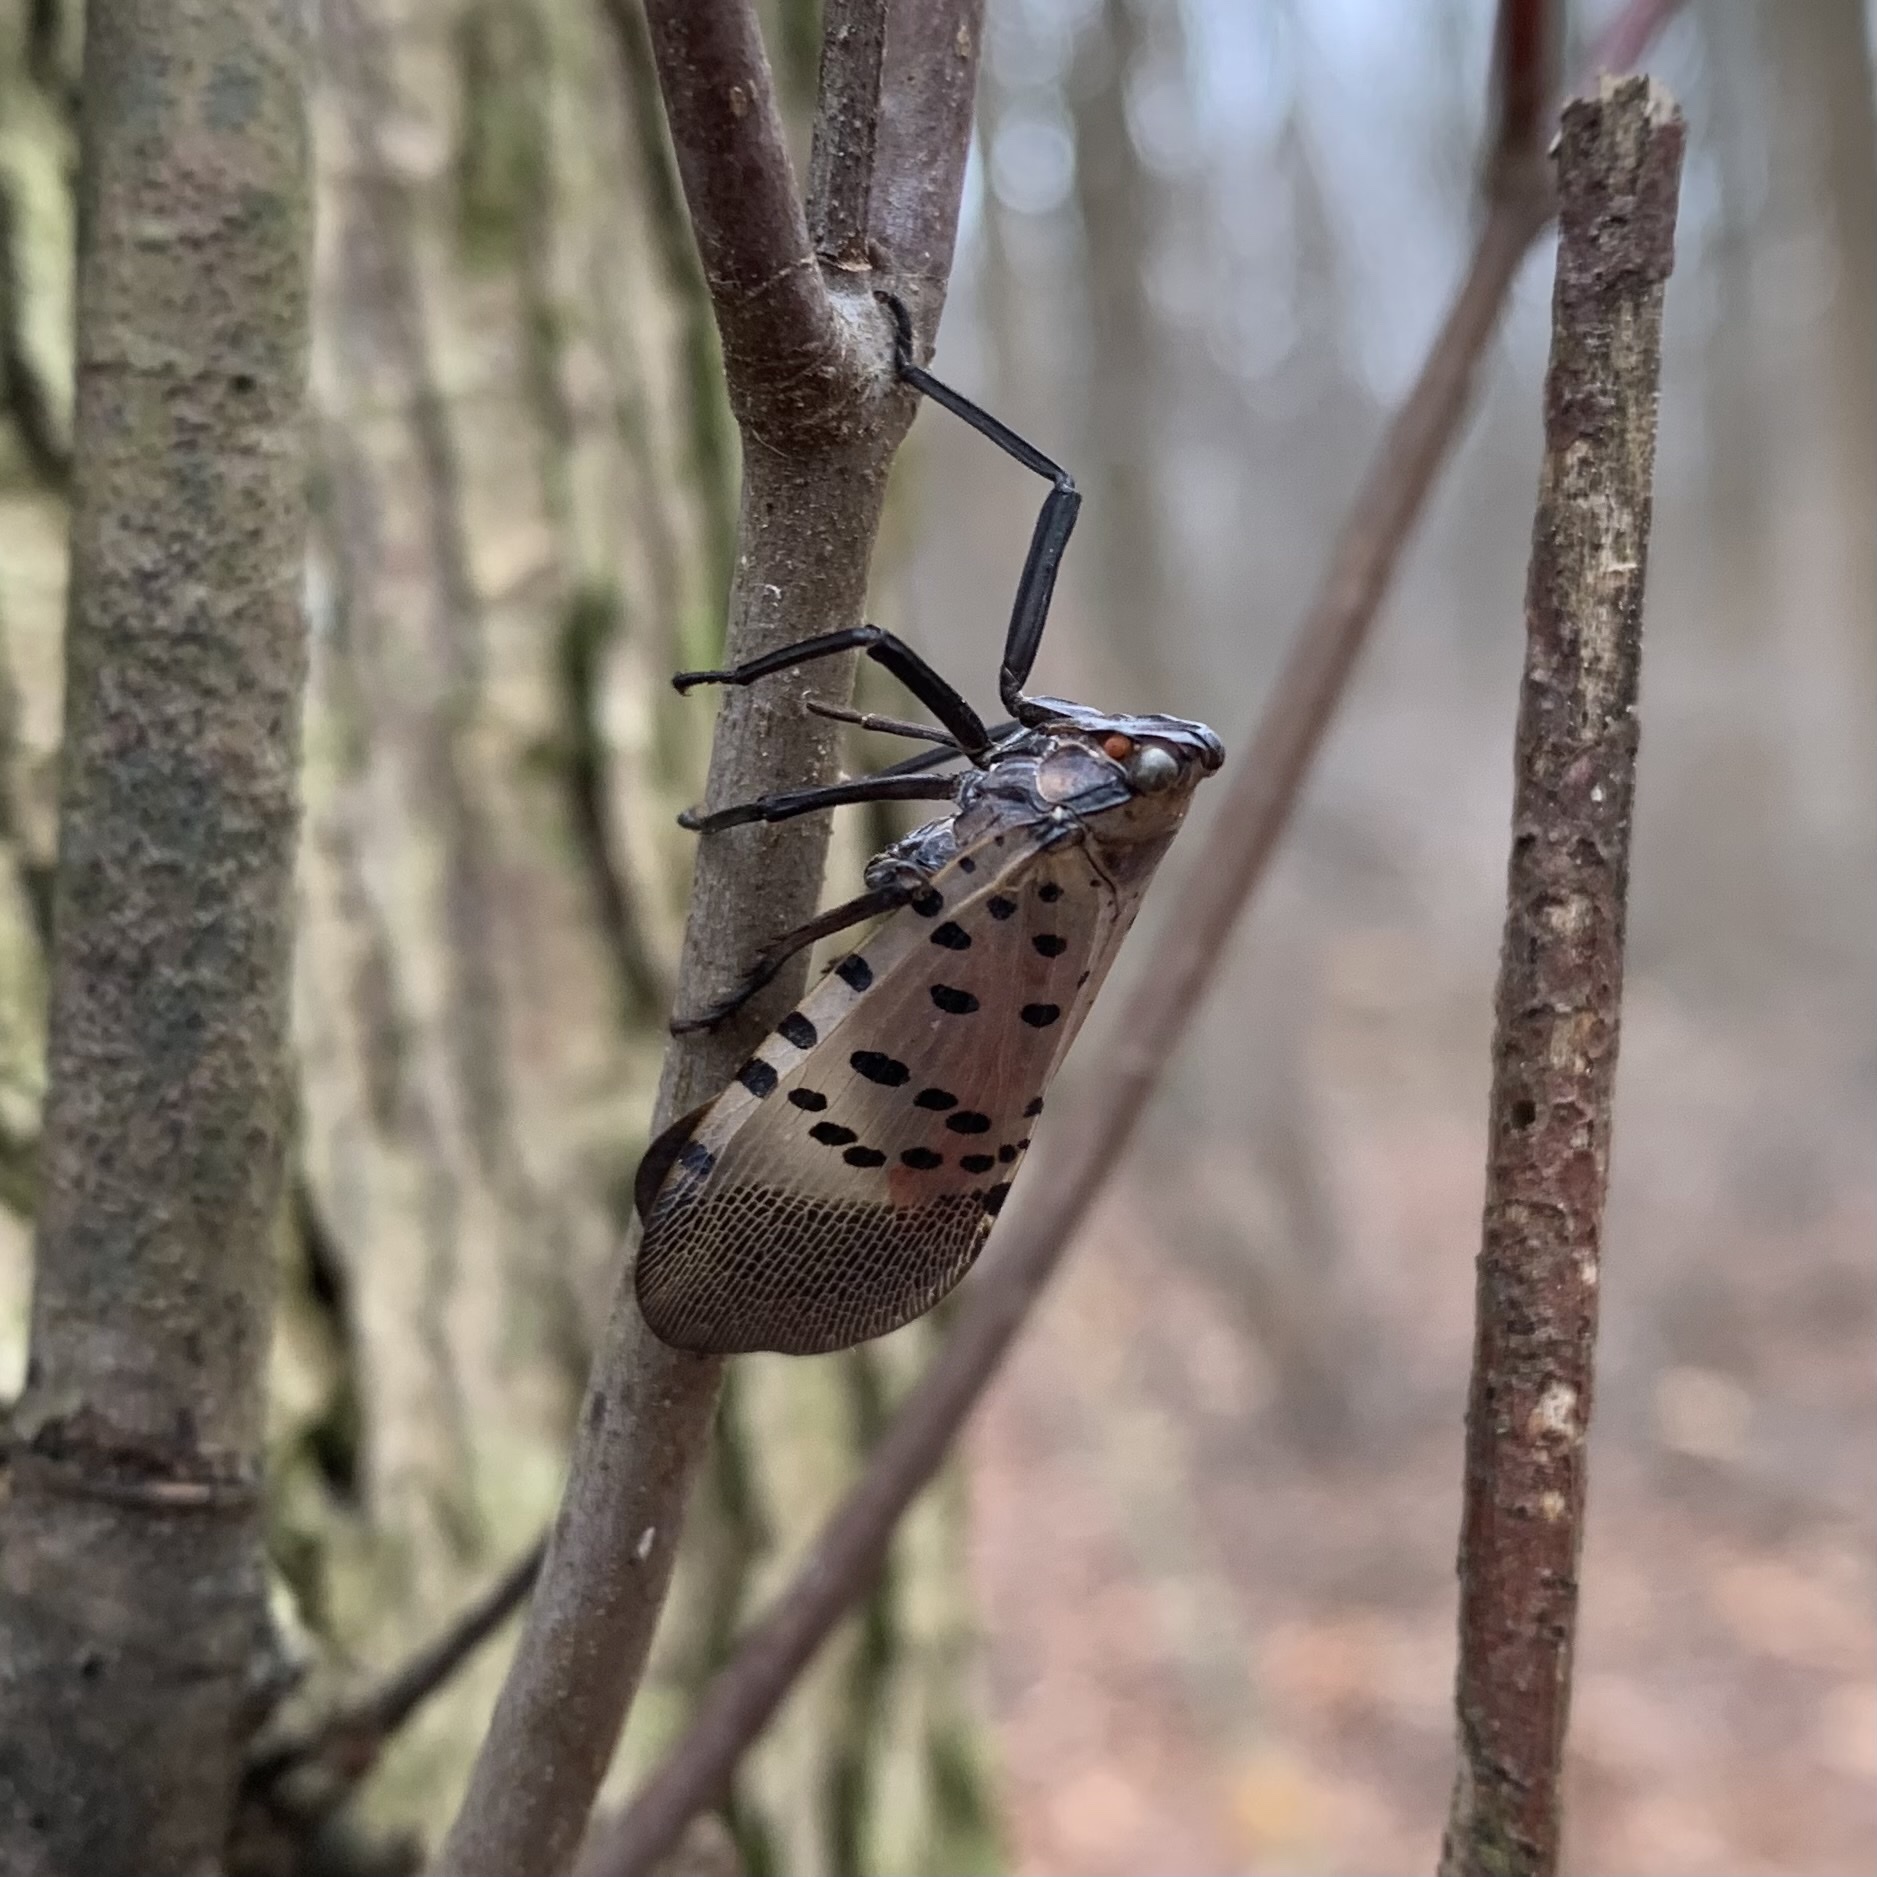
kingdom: Animalia
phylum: Arthropoda
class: Insecta
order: Hemiptera
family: Fulgoridae
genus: Lycorma
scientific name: Lycorma delicatula
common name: Spotted lanternfly
